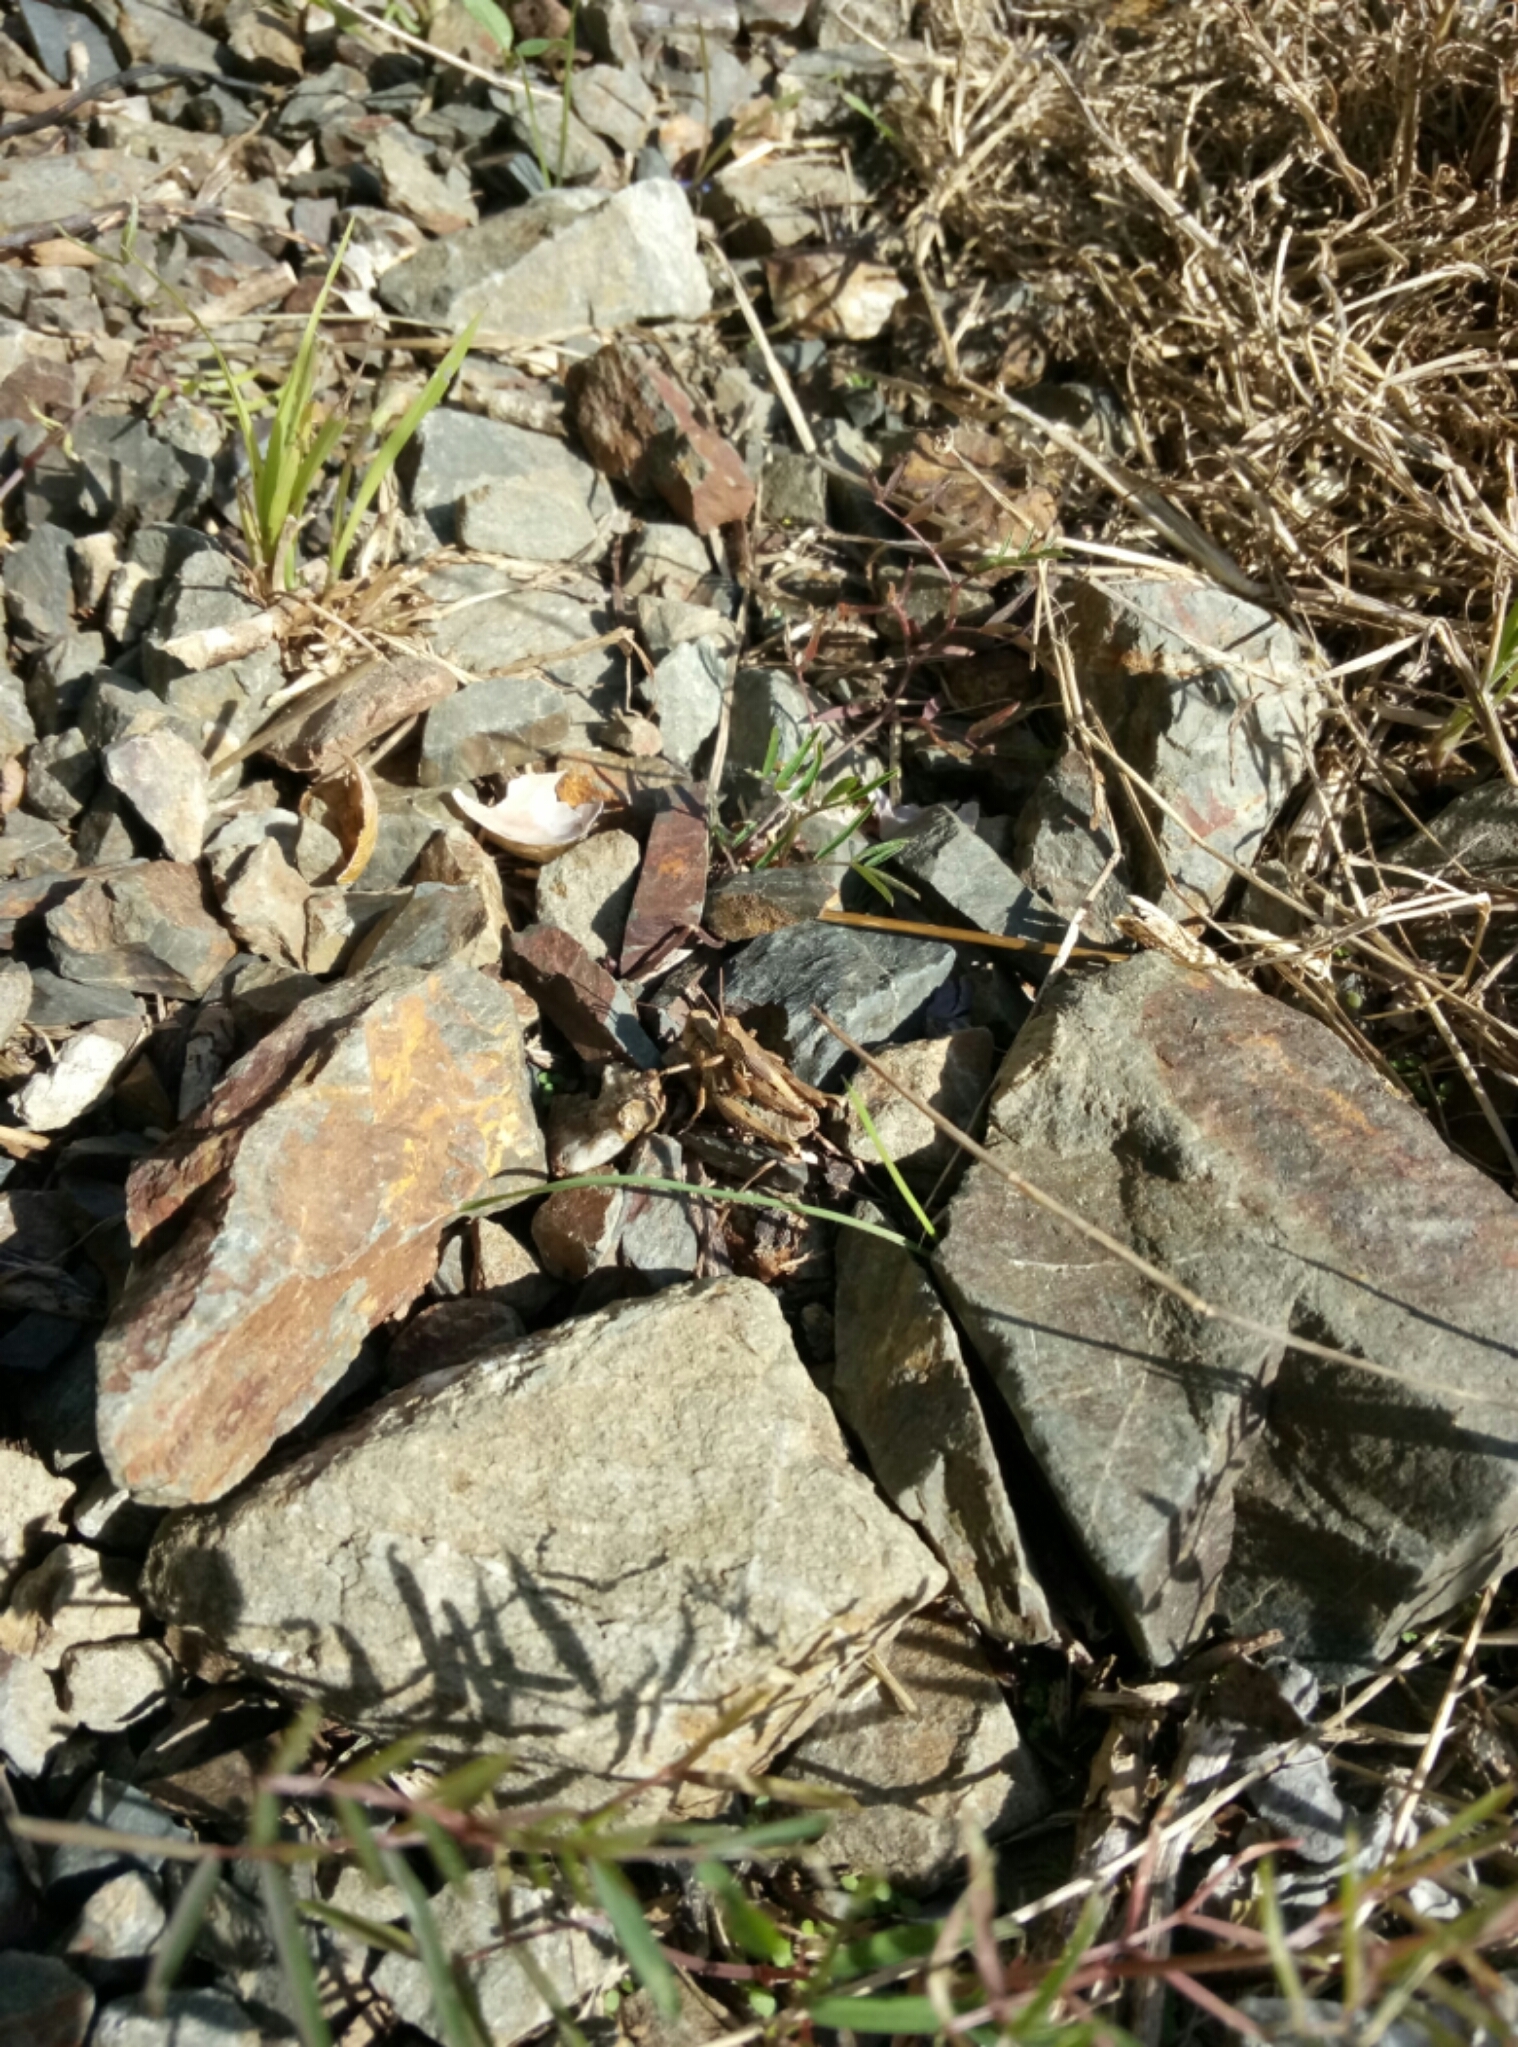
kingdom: Animalia
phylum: Arthropoda
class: Insecta
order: Orthoptera
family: Acrididae
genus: Phaulacridium
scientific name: Phaulacridium marginale
